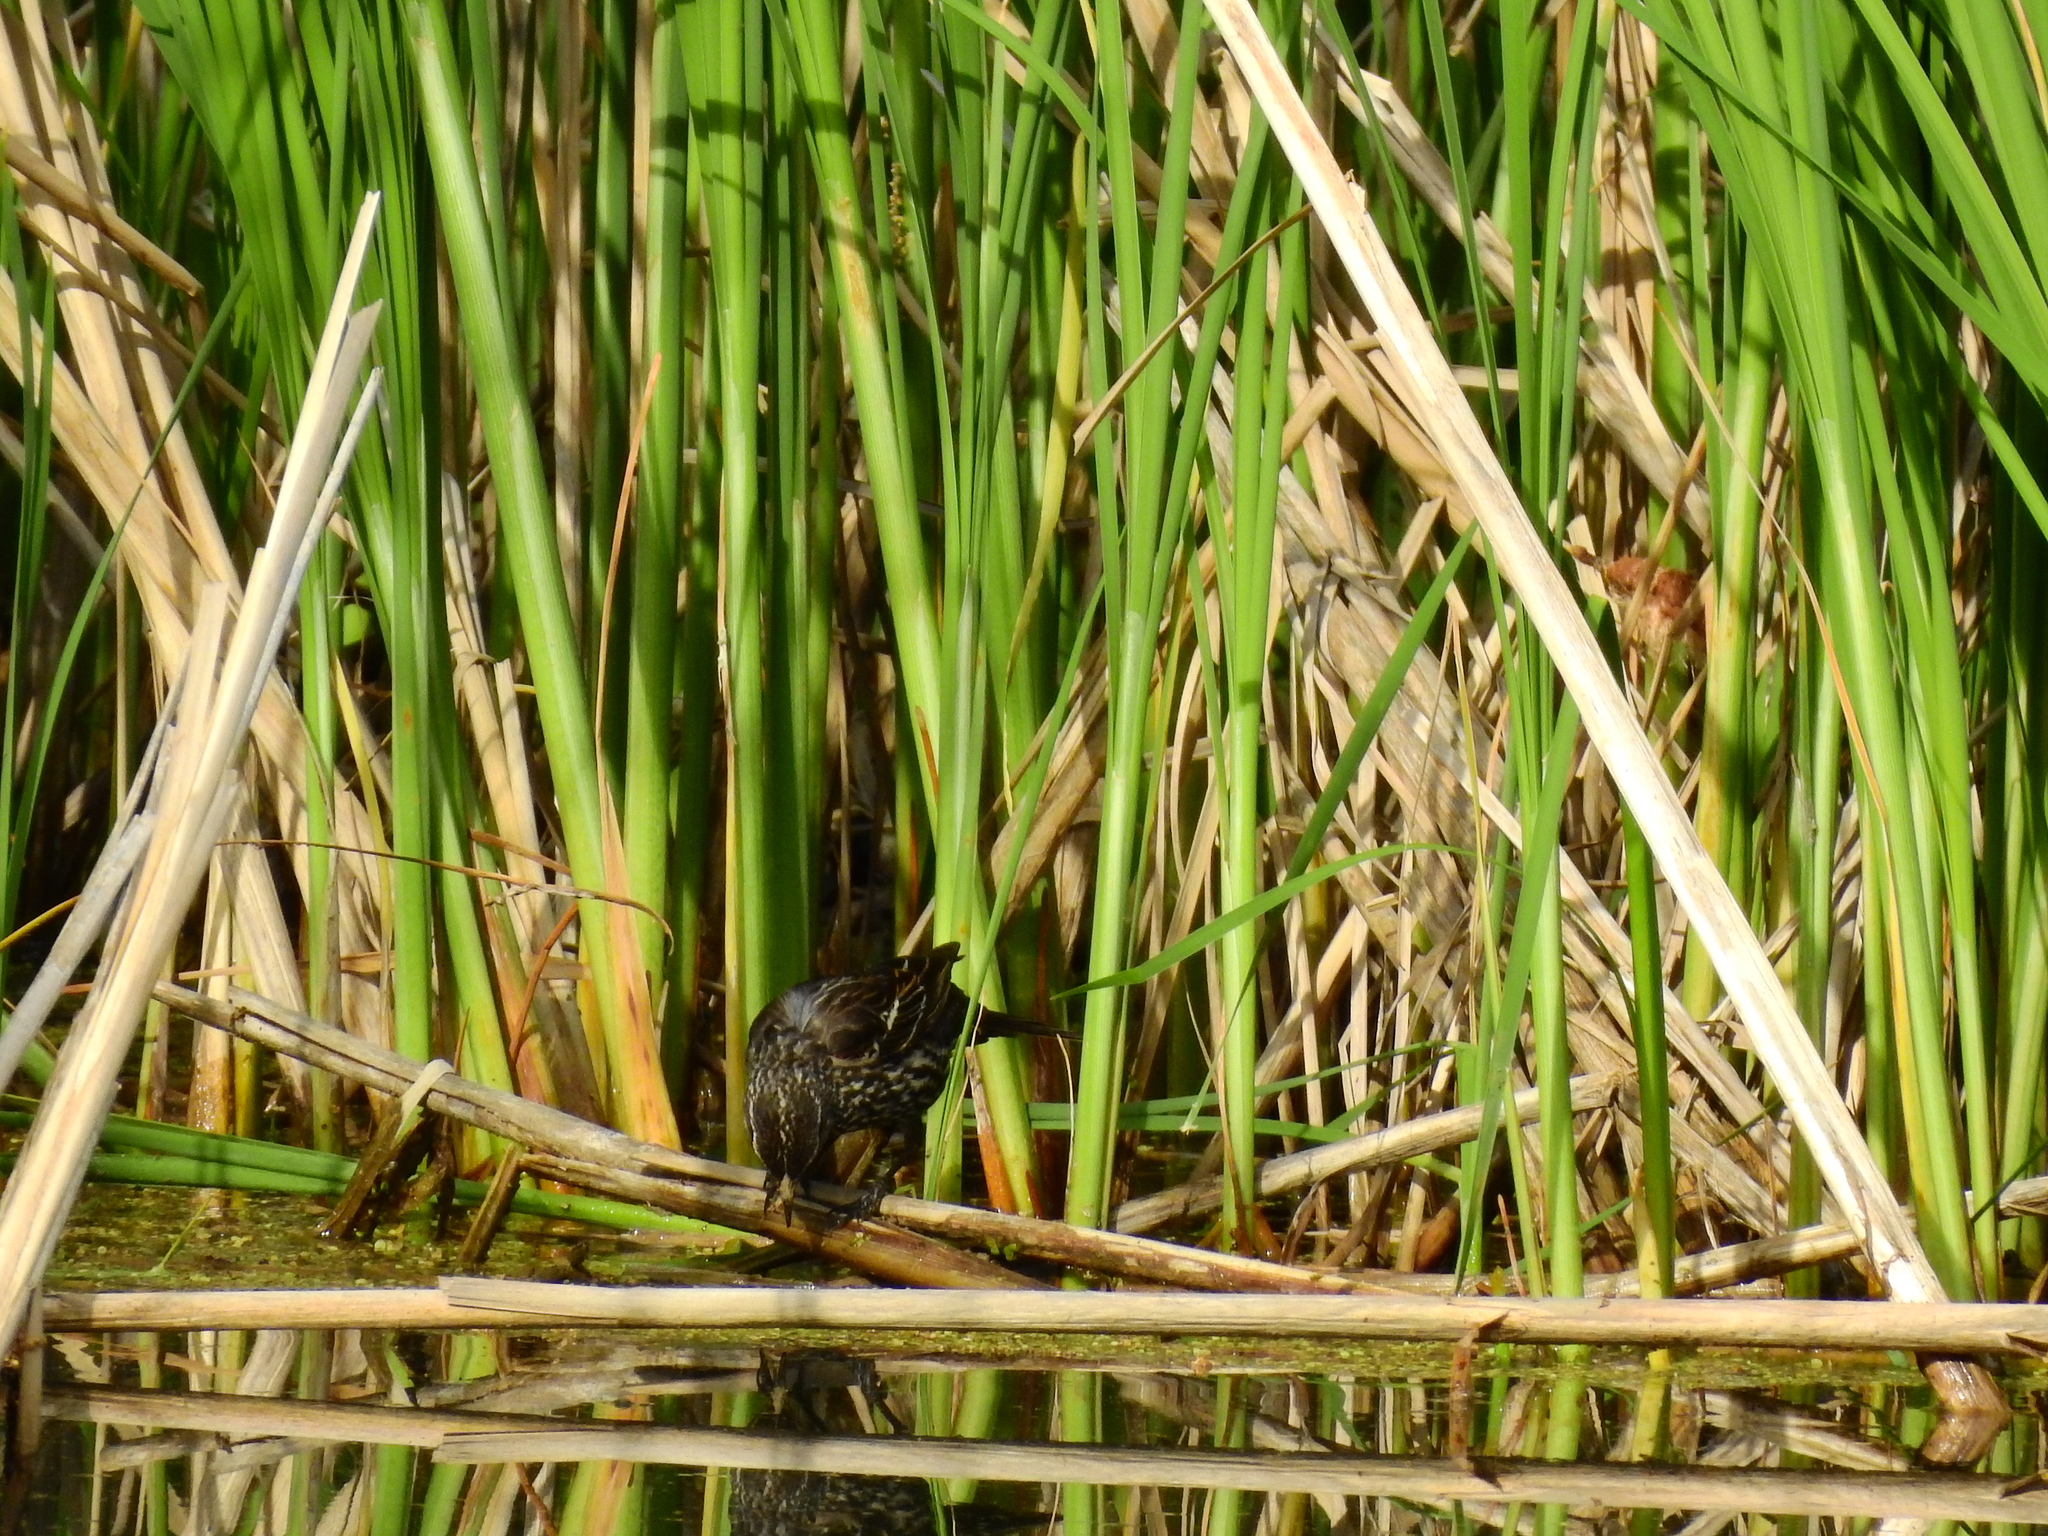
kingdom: Animalia
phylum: Chordata
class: Aves
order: Passeriformes
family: Icteridae
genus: Agelaius
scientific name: Agelaius phoeniceus
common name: Red-winged blackbird
